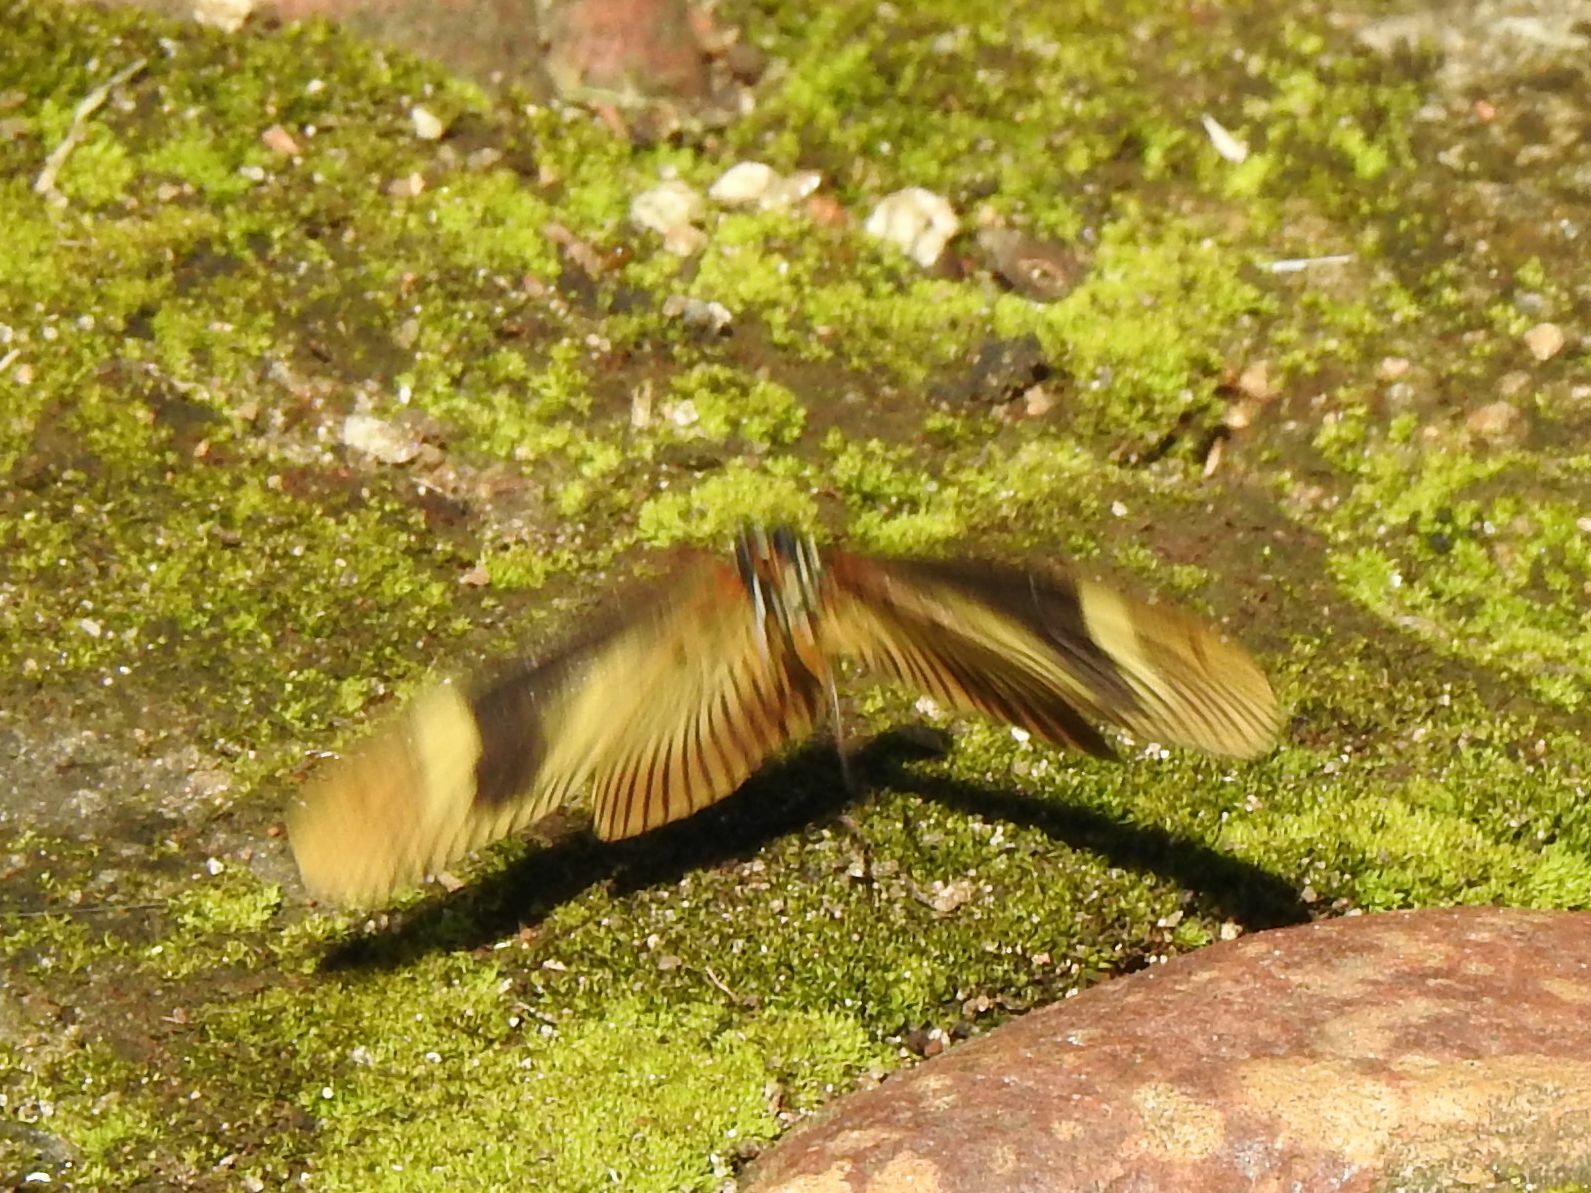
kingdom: Animalia
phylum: Arthropoda
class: Insecta
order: Lepidoptera
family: Nymphalidae
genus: Acraea
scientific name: Acraea esebria
